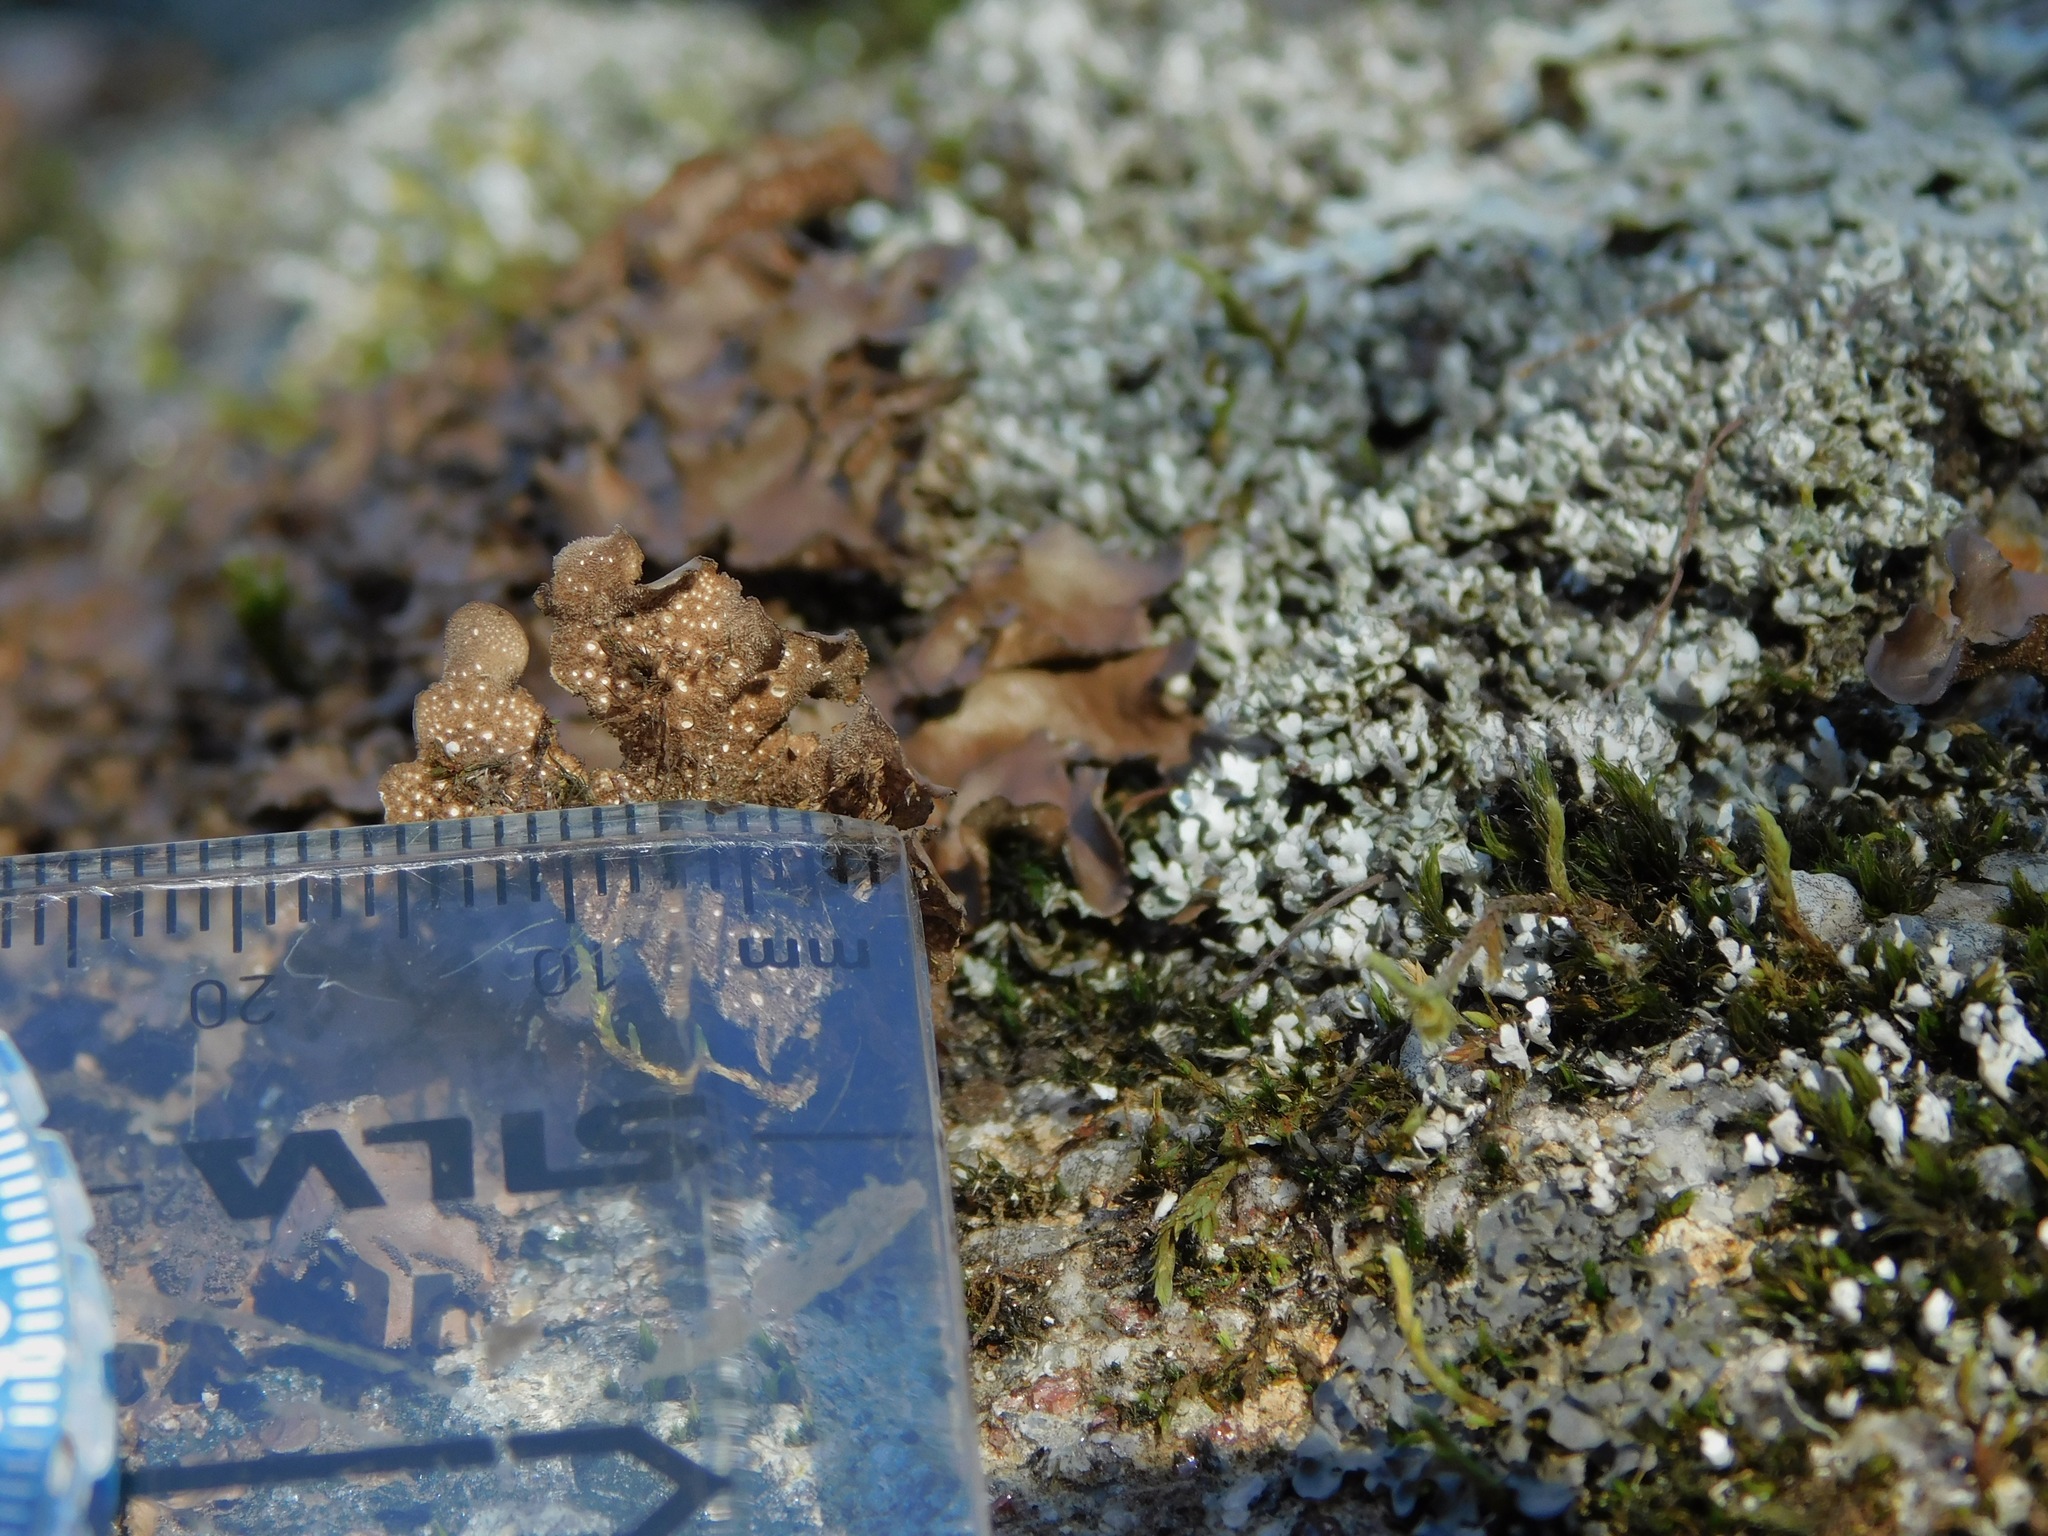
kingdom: Fungi
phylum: Ascomycota
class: Lecanoromycetes
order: Peltigerales
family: Lobariaceae
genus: Sticta
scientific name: Sticta beauvoisii
